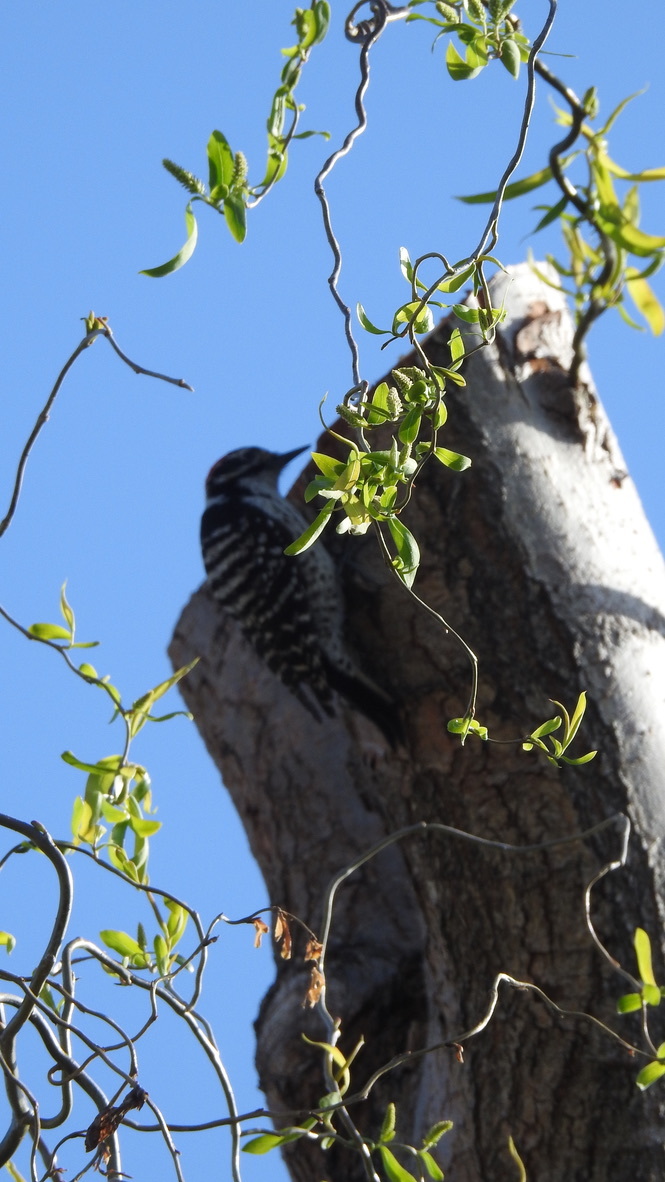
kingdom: Animalia
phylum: Chordata
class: Aves
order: Piciformes
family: Picidae
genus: Dryobates
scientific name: Dryobates nuttallii
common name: Nuttall's woodpecker
